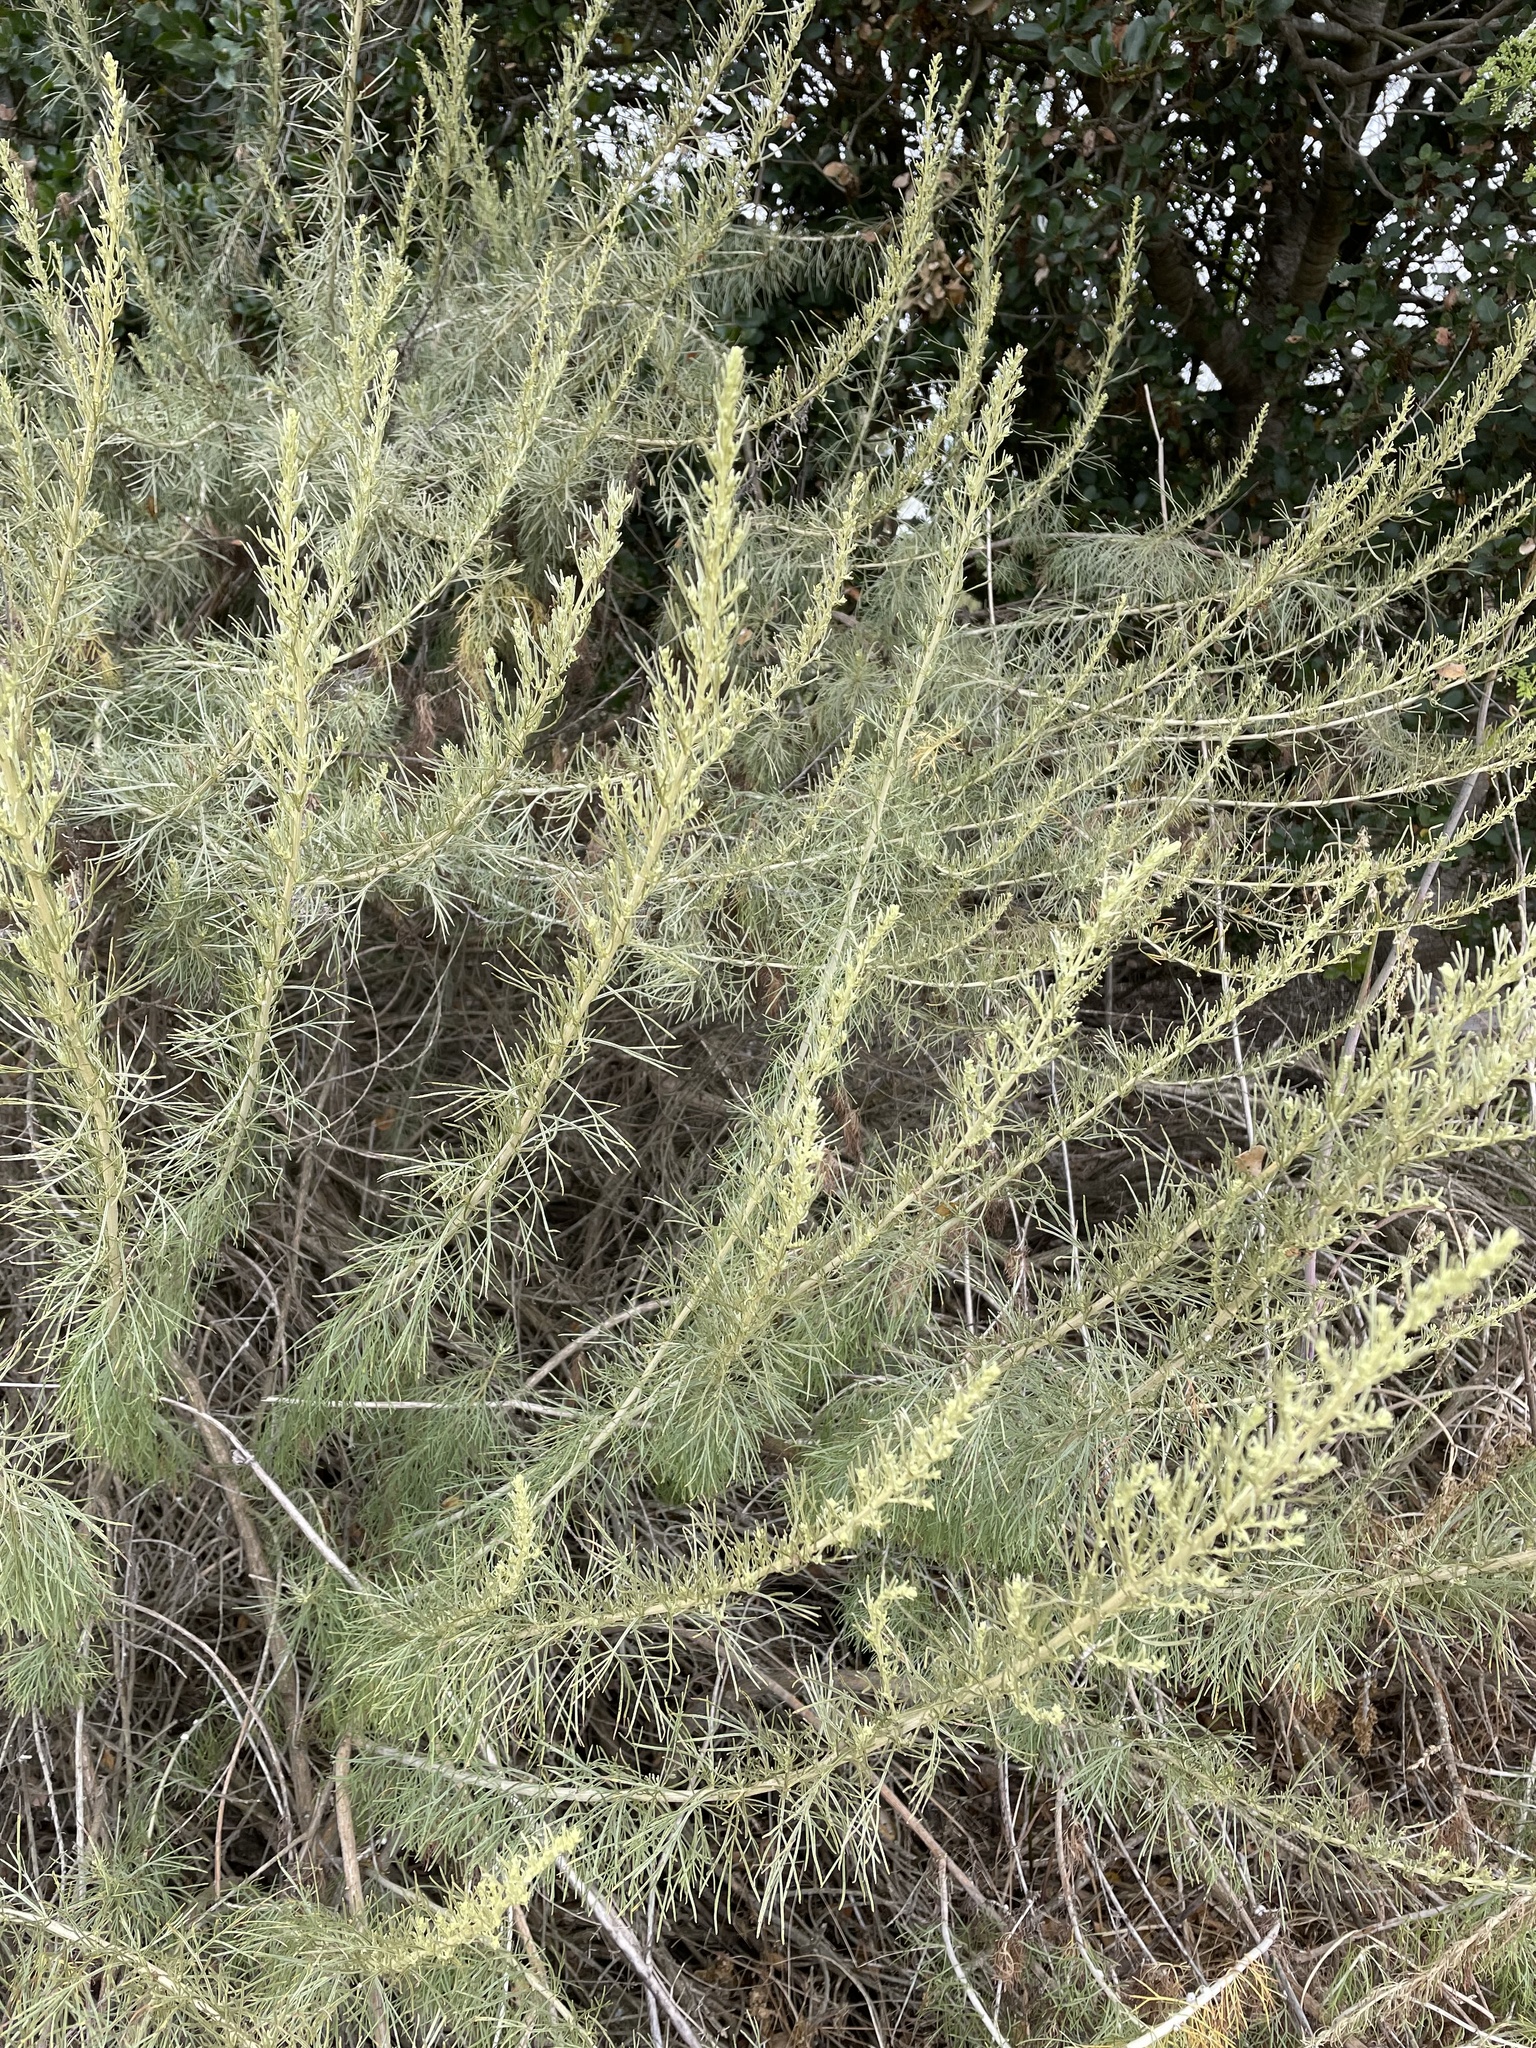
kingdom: Plantae
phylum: Tracheophyta
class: Magnoliopsida
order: Asterales
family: Asteraceae
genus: Artemisia
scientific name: Artemisia californica
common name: California sagebrush
